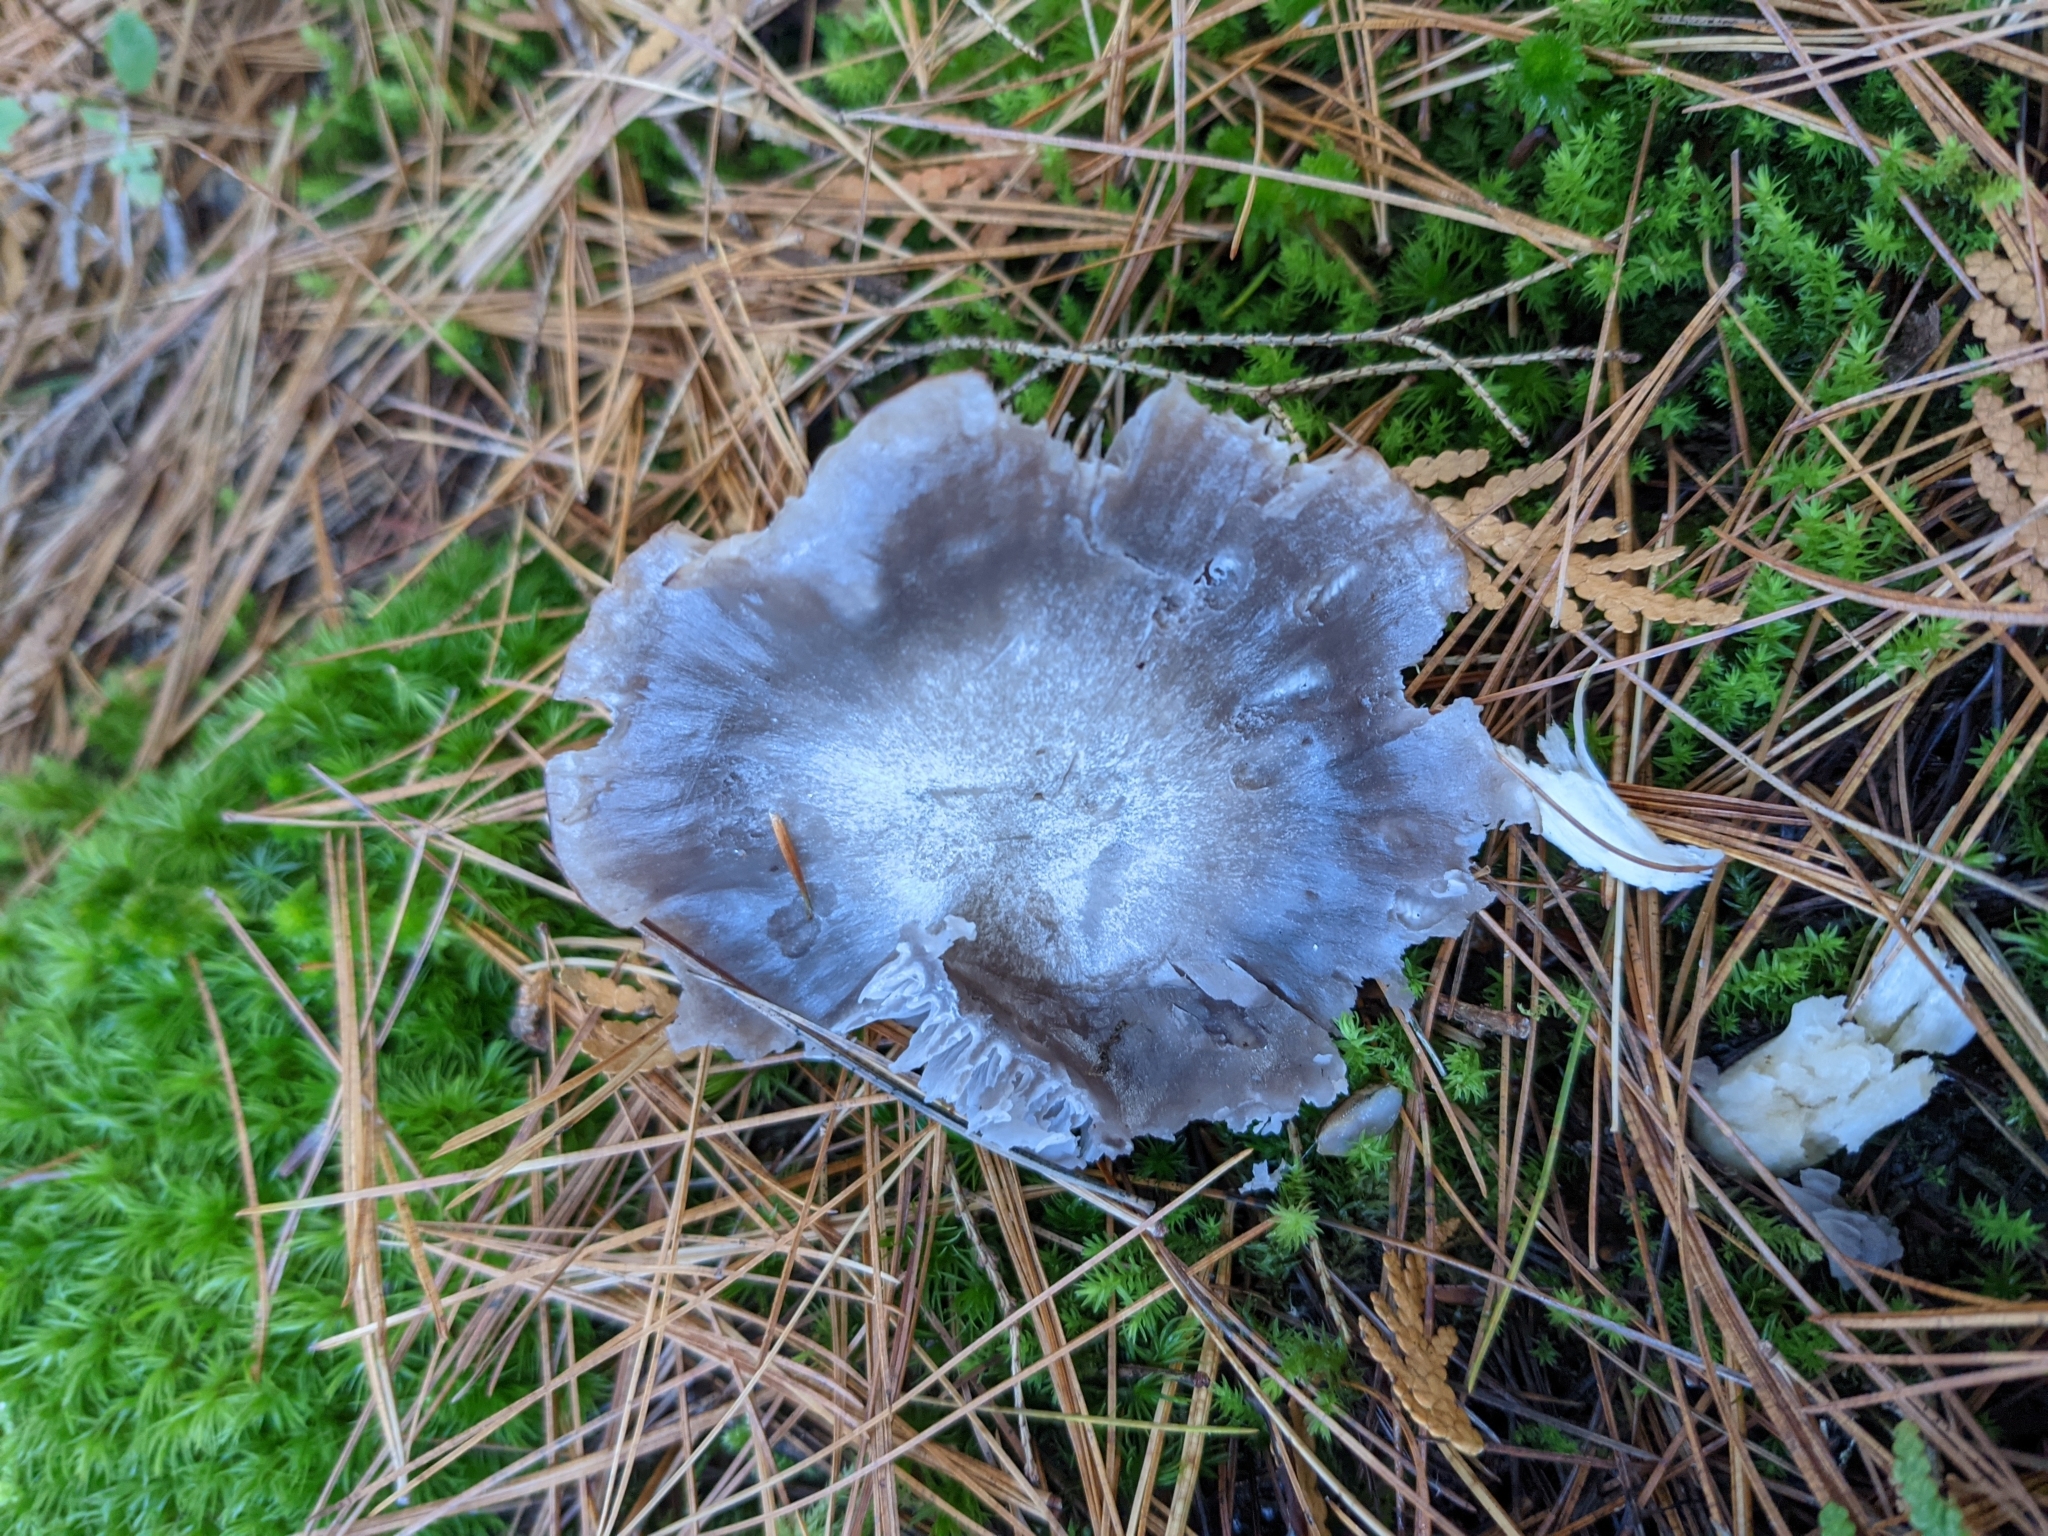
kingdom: Fungi
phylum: Basidiomycota
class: Agaricomycetes
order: Agaricales
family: Hygrophoraceae
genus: Cuphophyllus
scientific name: Cuphophyllus lacmus
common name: Grey waxcap
